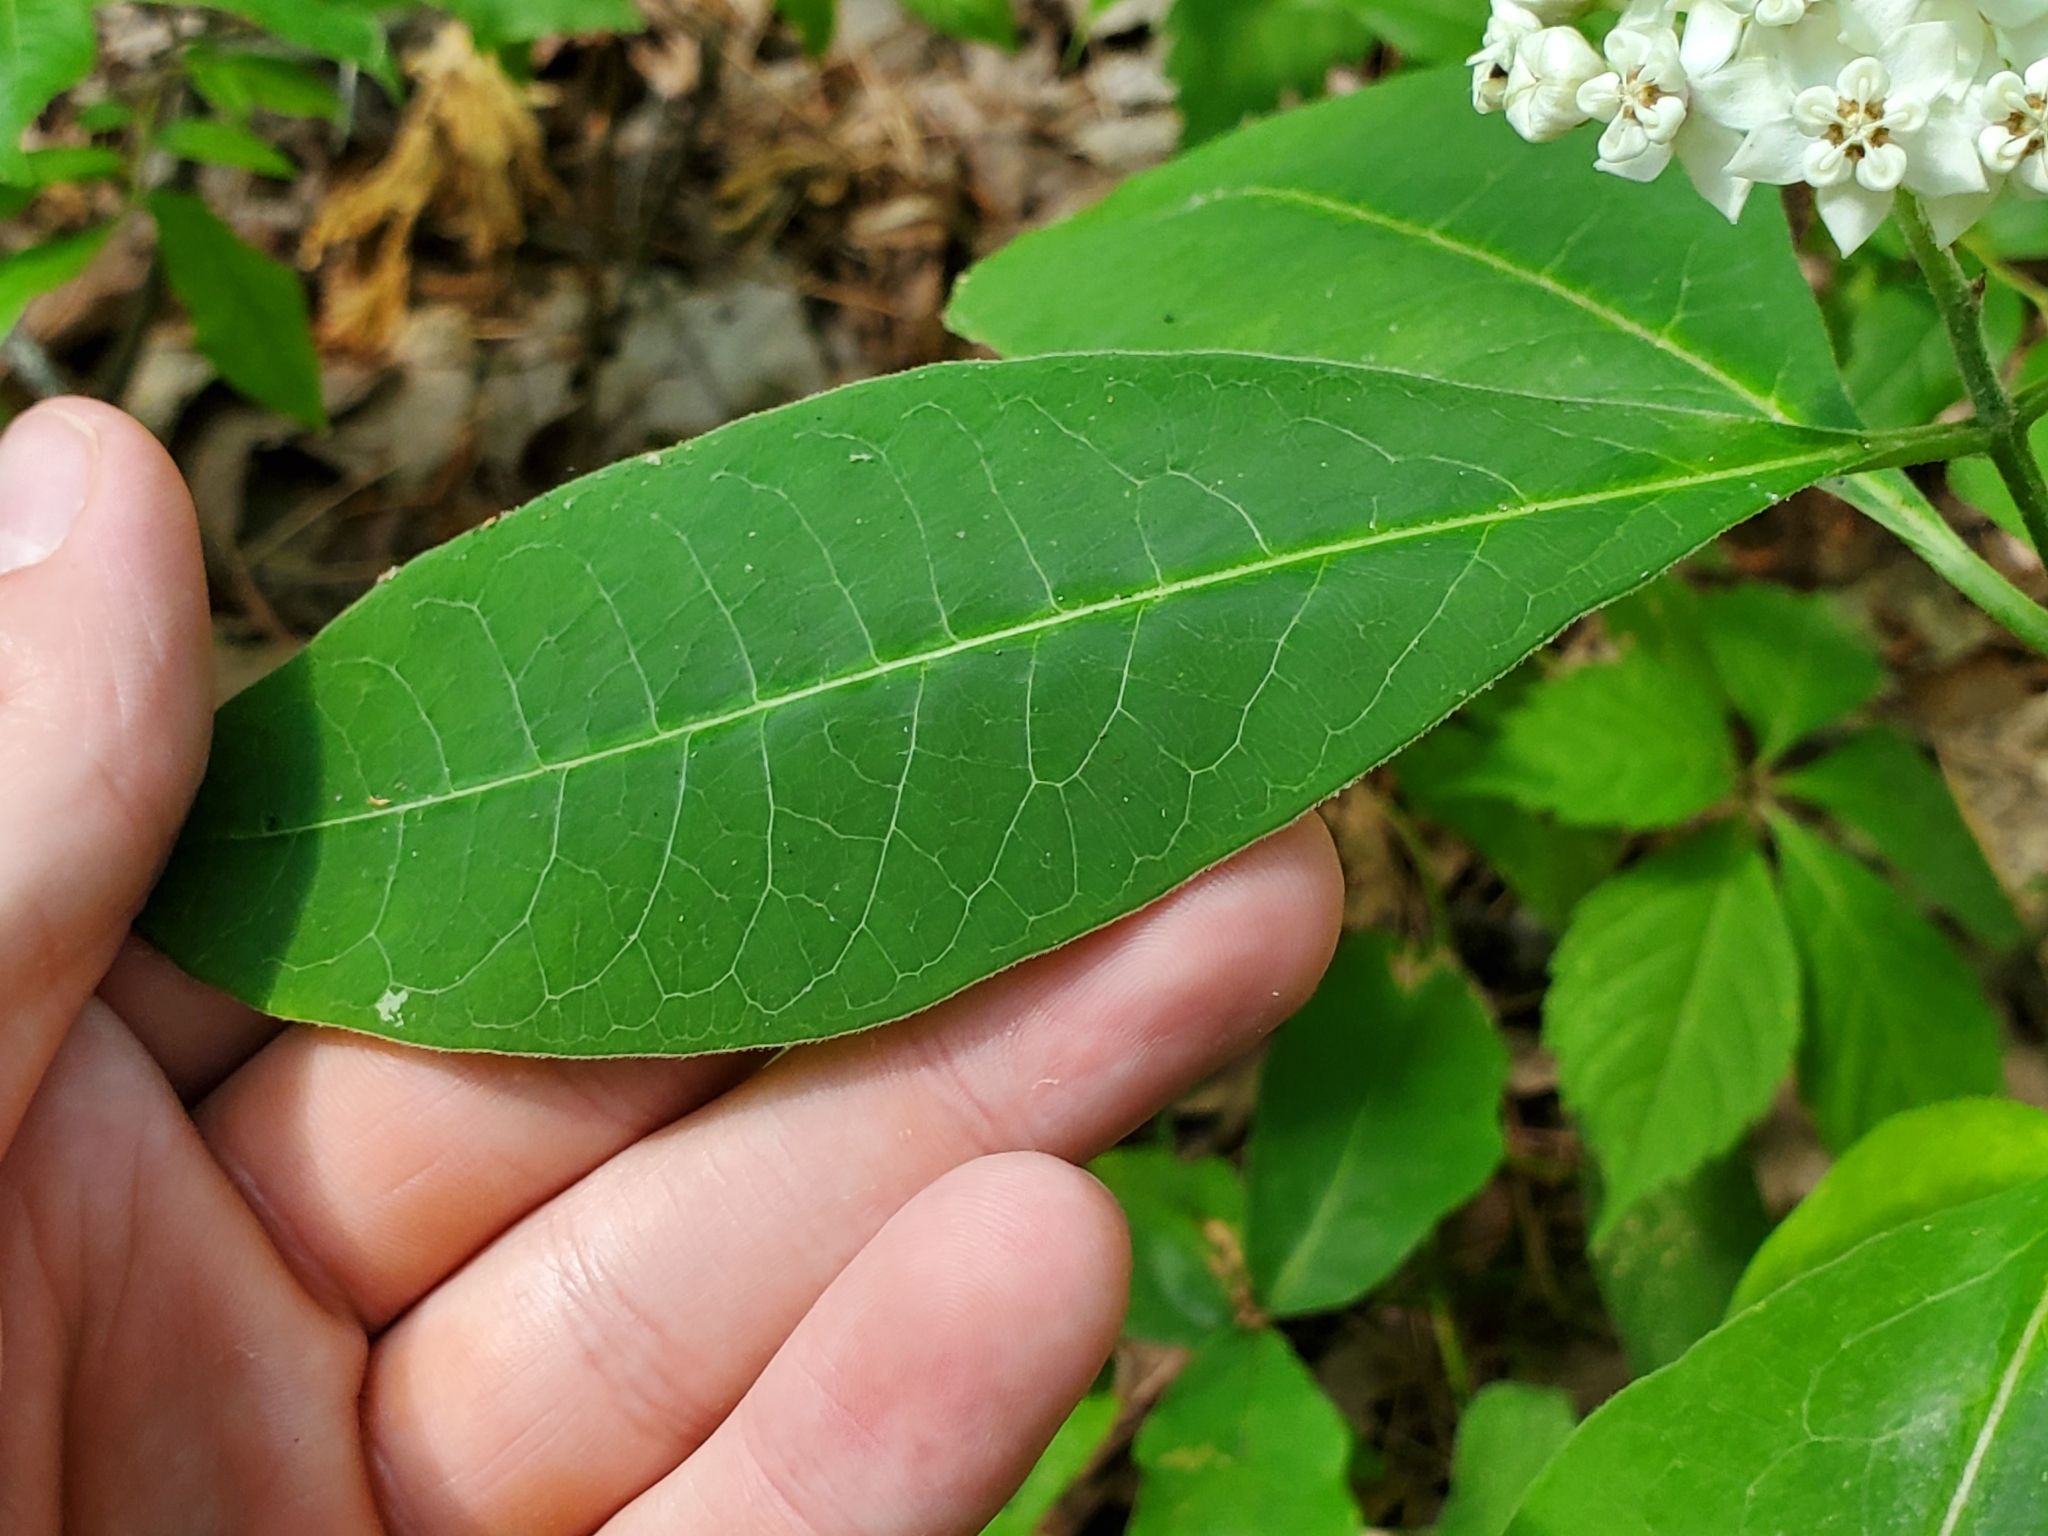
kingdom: Plantae
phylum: Tracheophyta
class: Magnoliopsida
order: Gentianales
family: Apocynaceae
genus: Asclepias
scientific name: Asclepias variegata
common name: Variegated milkweed
